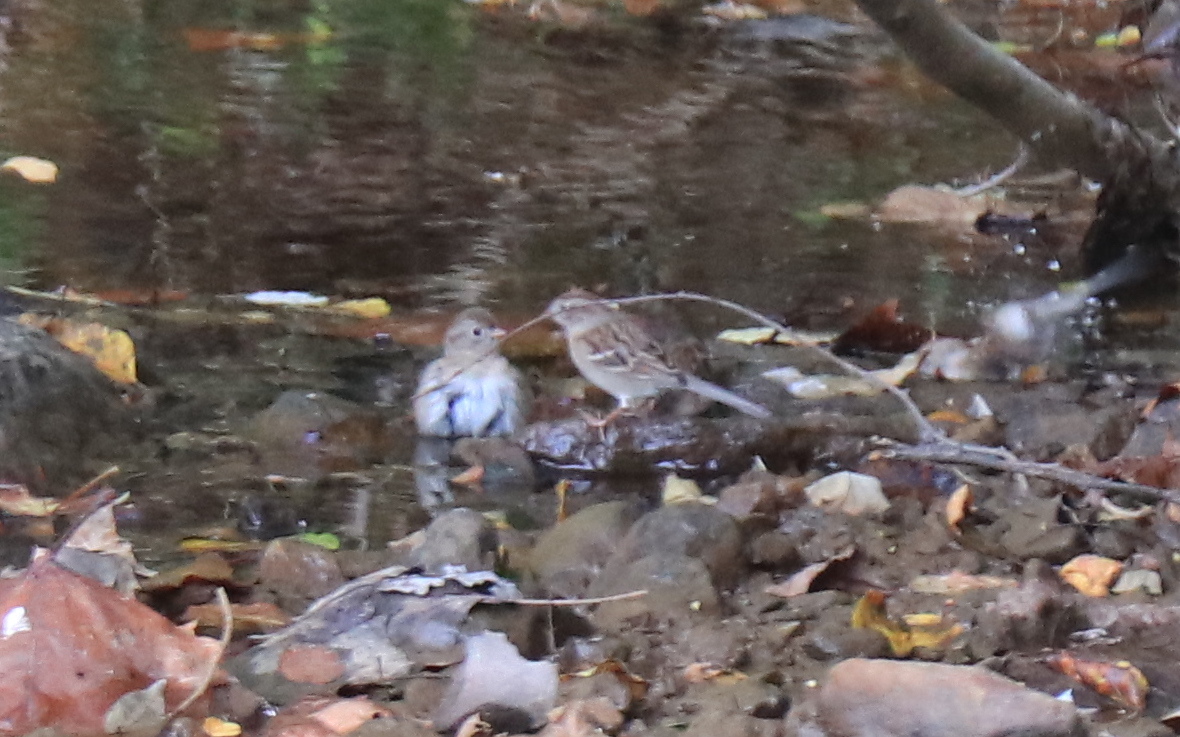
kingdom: Animalia
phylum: Chordata
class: Aves
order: Passeriformes
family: Passerellidae
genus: Spizella
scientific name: Spizella pusilla
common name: Field sparrow
